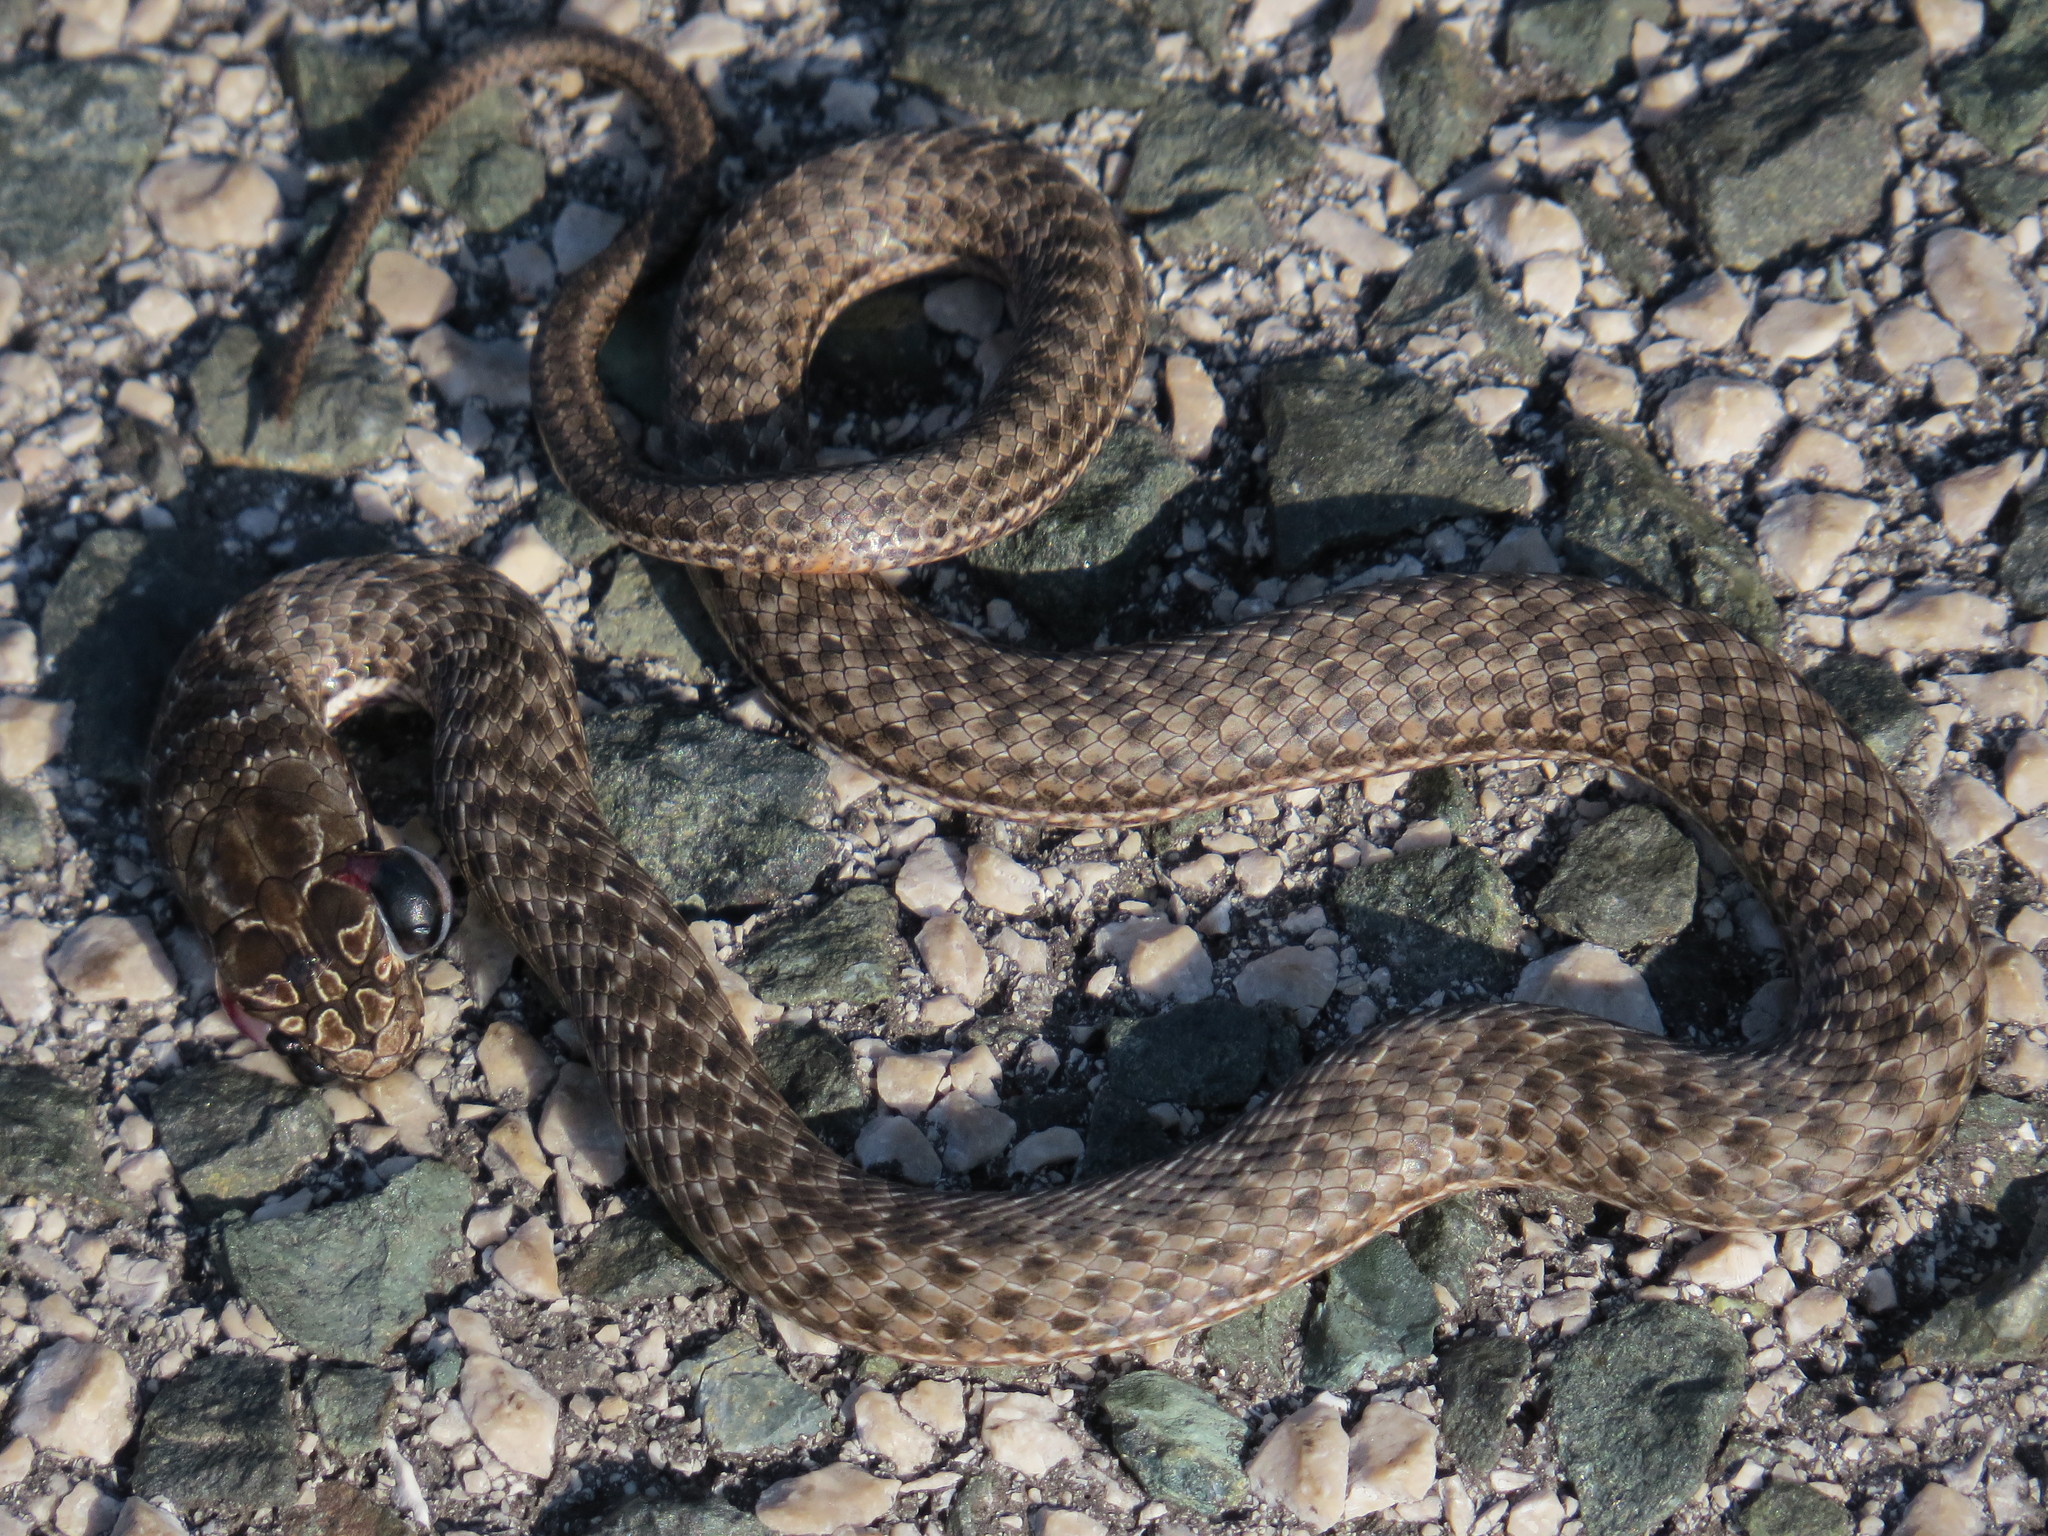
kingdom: Animalia
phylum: Chordata
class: Squamata
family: Psammophiidae
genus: Malpolon
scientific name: Malpolon insignitus
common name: Eastern montpellier snake
